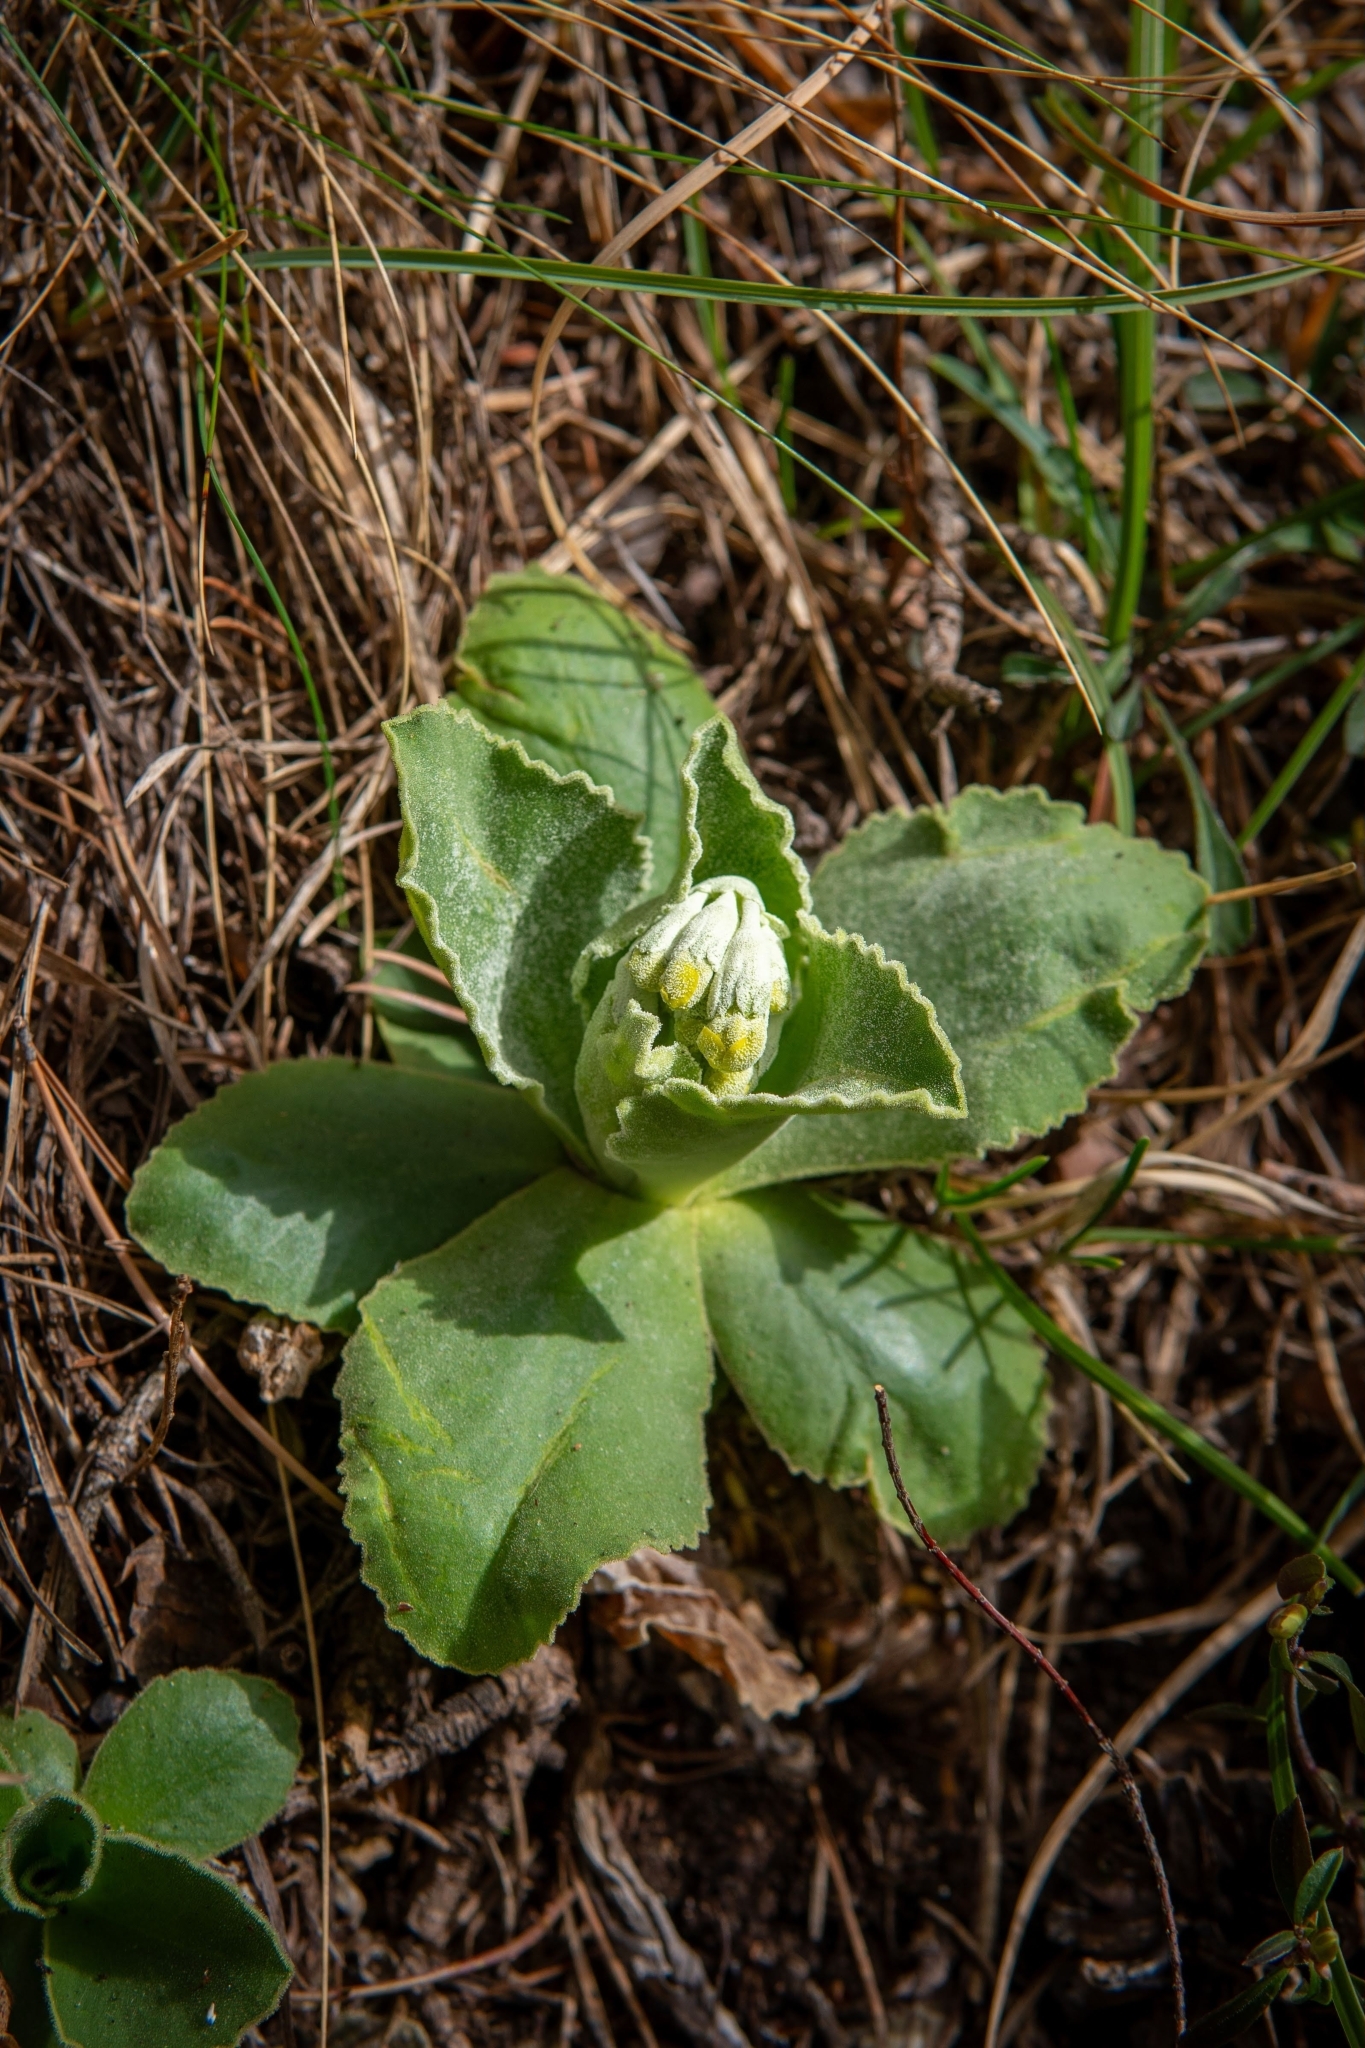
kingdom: Plantae
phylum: Tracheophyta
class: Magnoliopsida
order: Ericales
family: Primulaceae
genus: Primula
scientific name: Primula auricula
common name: Auricula
